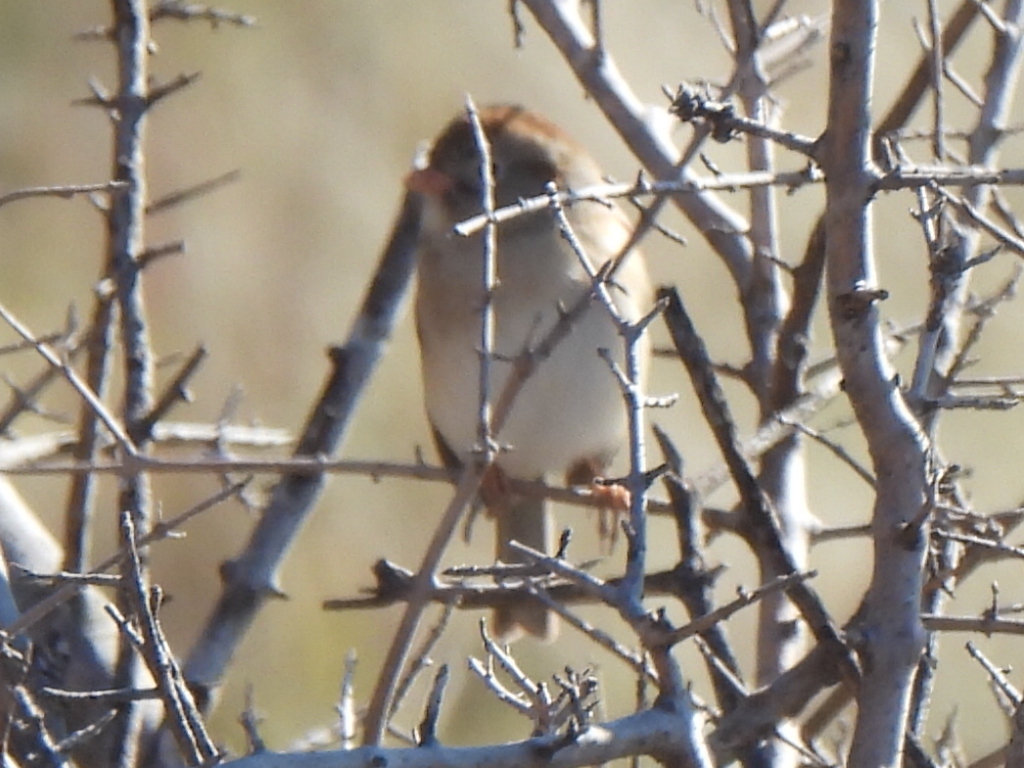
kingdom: Animalia
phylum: Chordata
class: Aves
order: Passeriformes
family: Passerellidae
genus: Spizella
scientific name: Spizella pusilla
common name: Field sparrow
